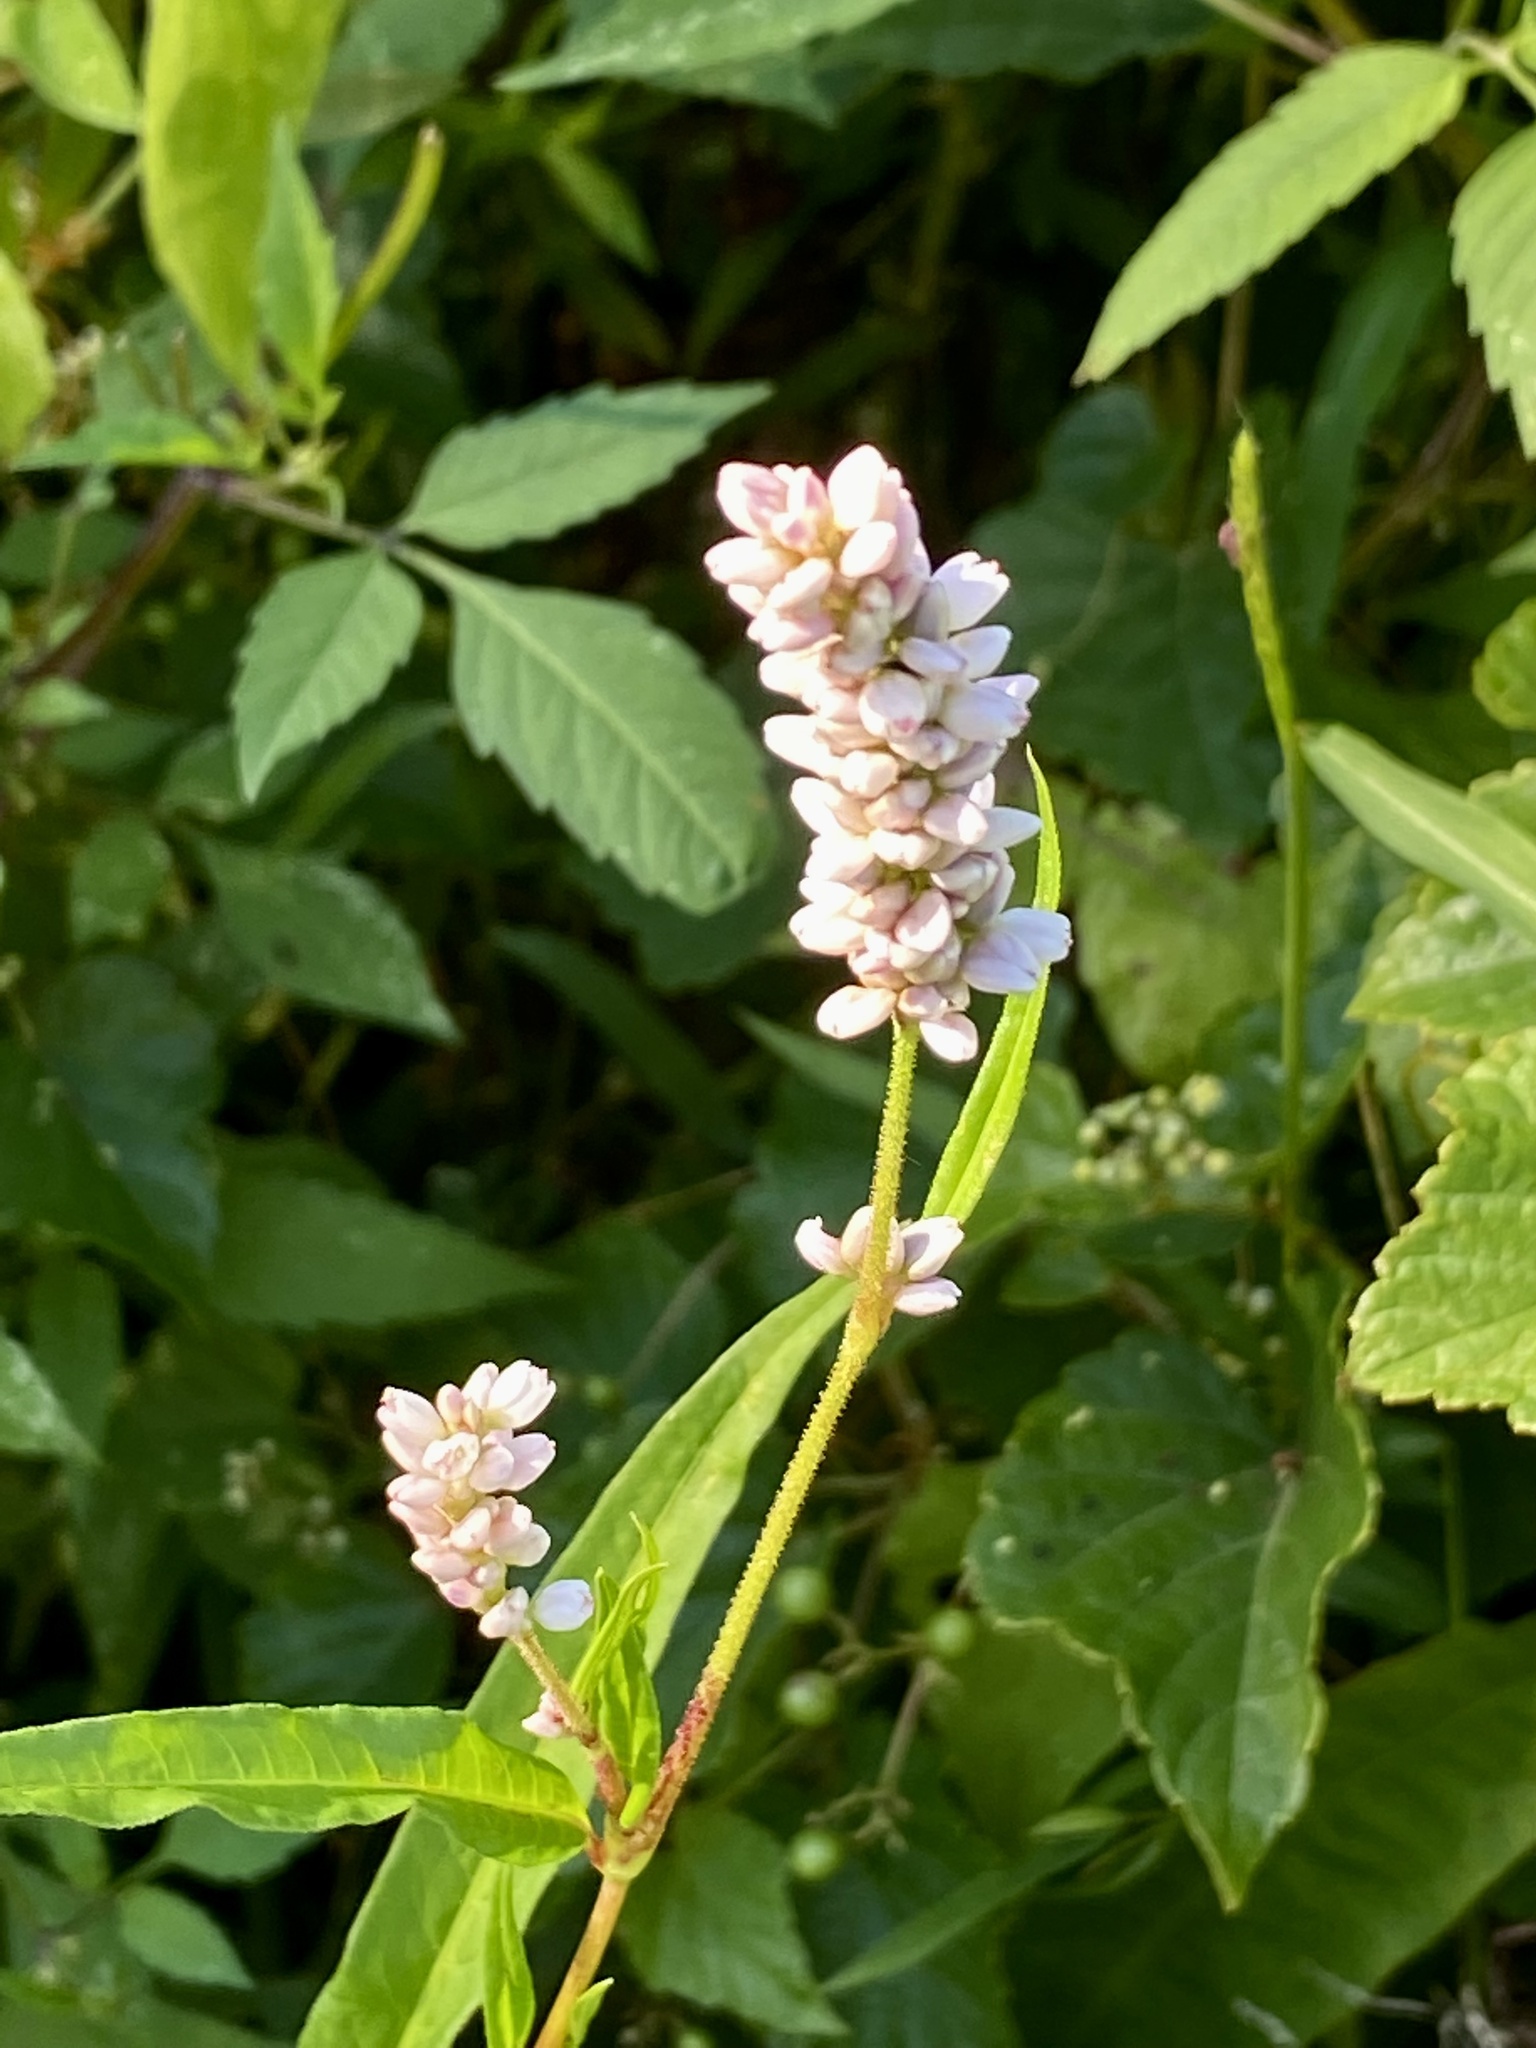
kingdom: Plantae
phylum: Tracheophyta
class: Magnoliopsida
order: Caryophyllales
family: Polygonaceae
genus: Persicaria
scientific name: Persicaria pensylvanica
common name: Pinkweed
